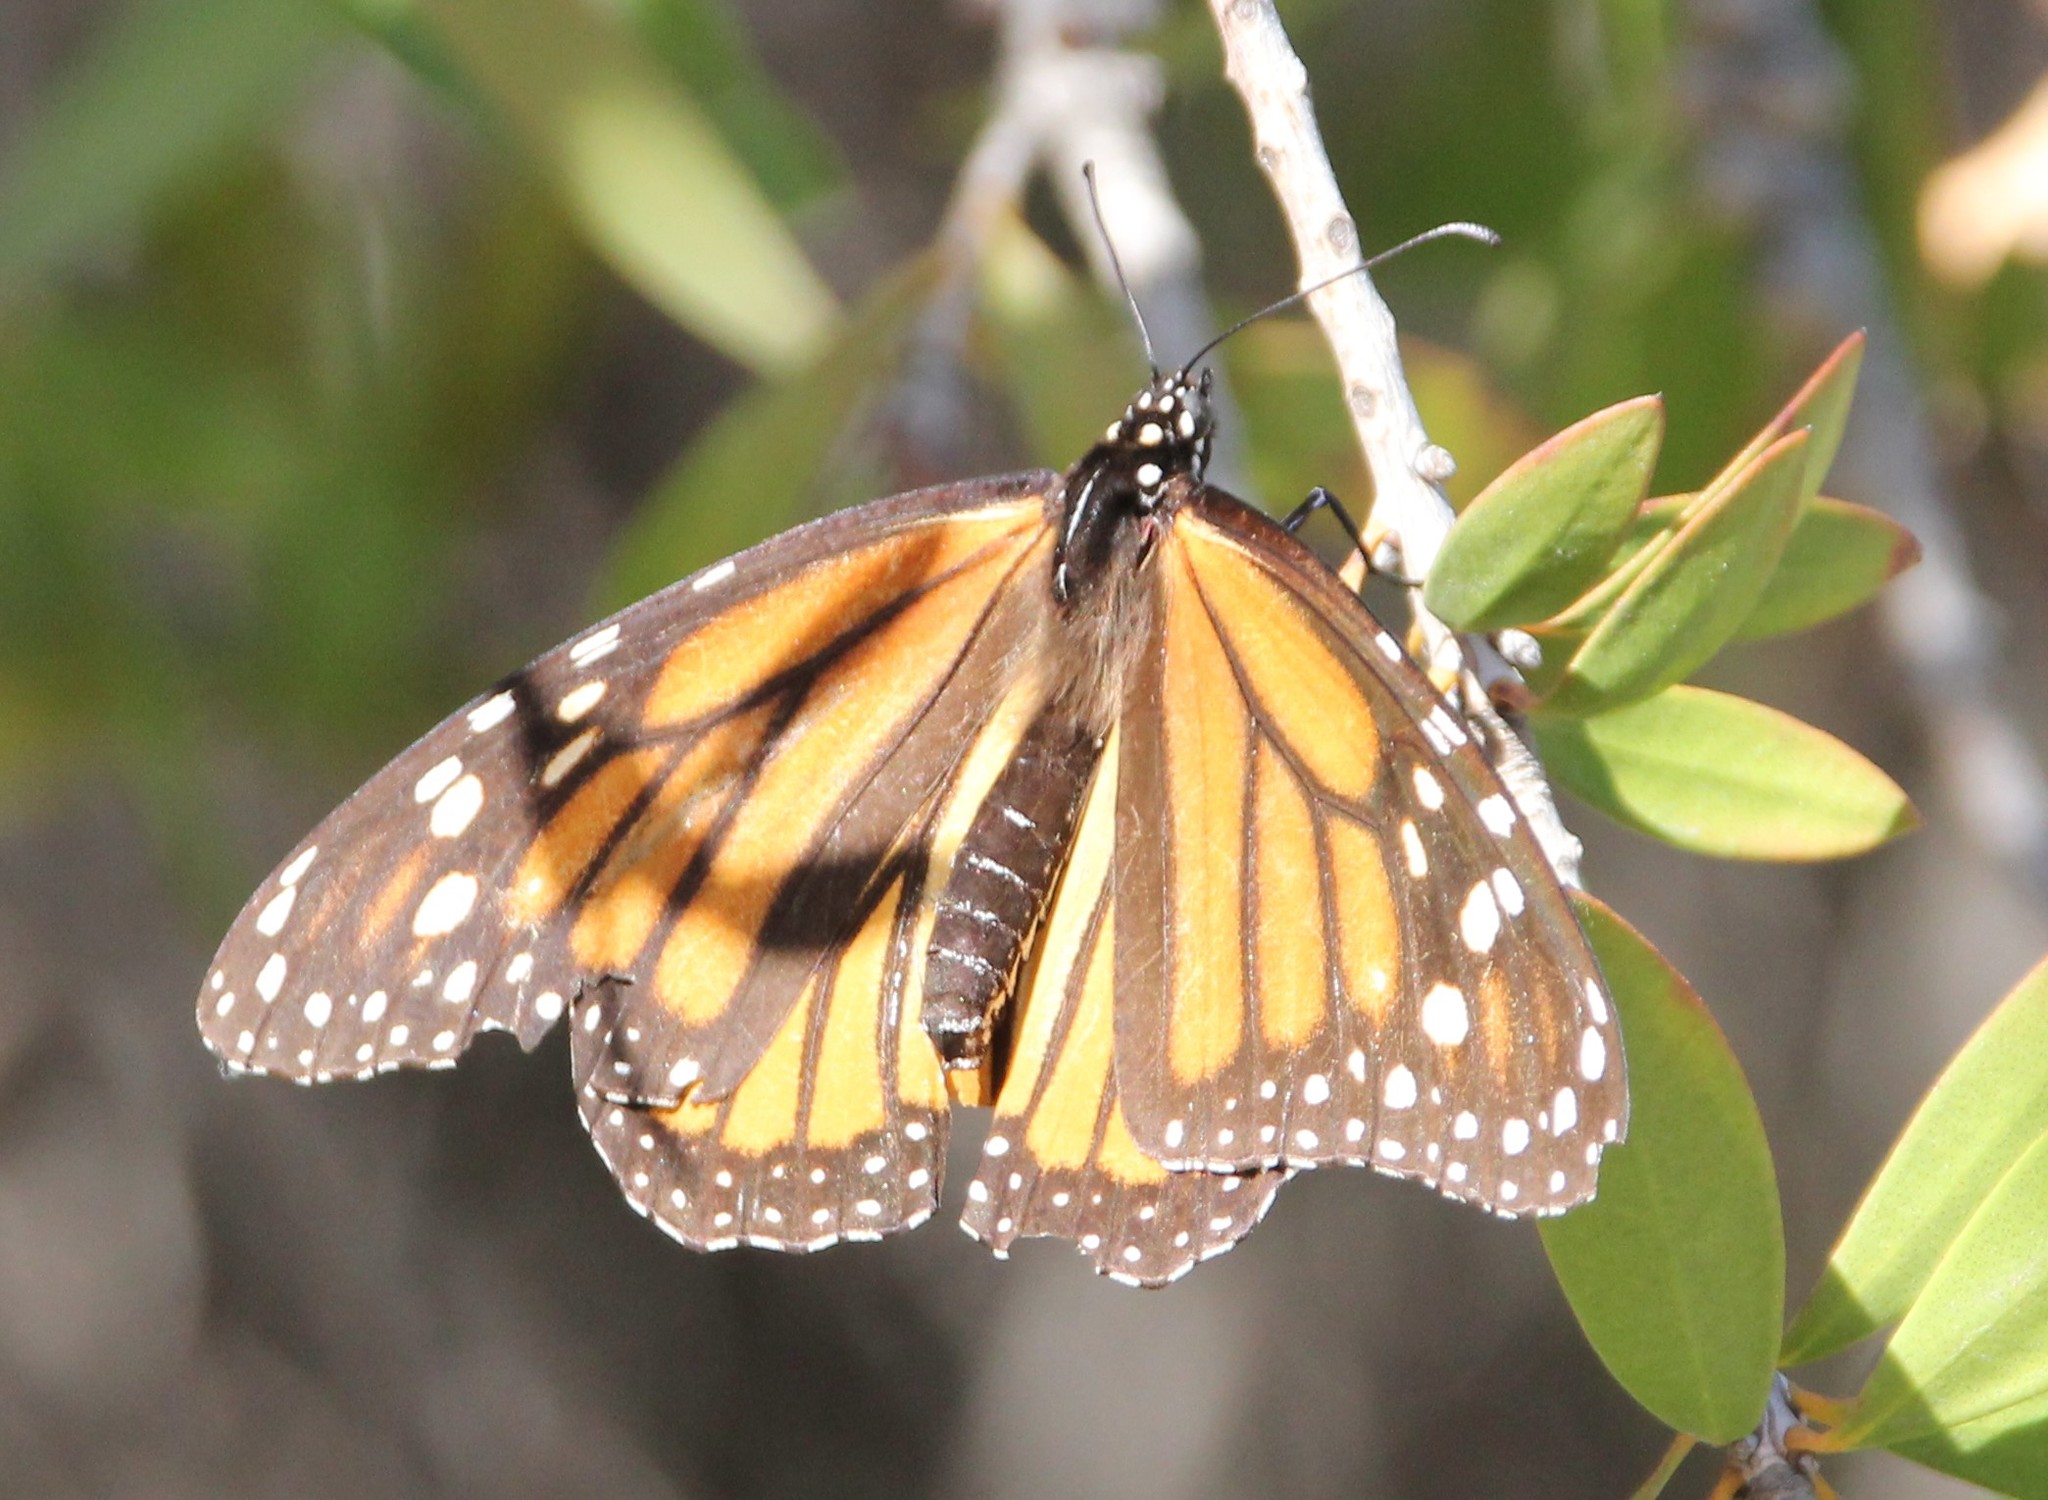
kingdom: Animalia
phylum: Arthropoda
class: Insecta
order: Lepidoptera
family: Nymphalidae
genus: Danaus
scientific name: Danaus plexippus
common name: Monarch
